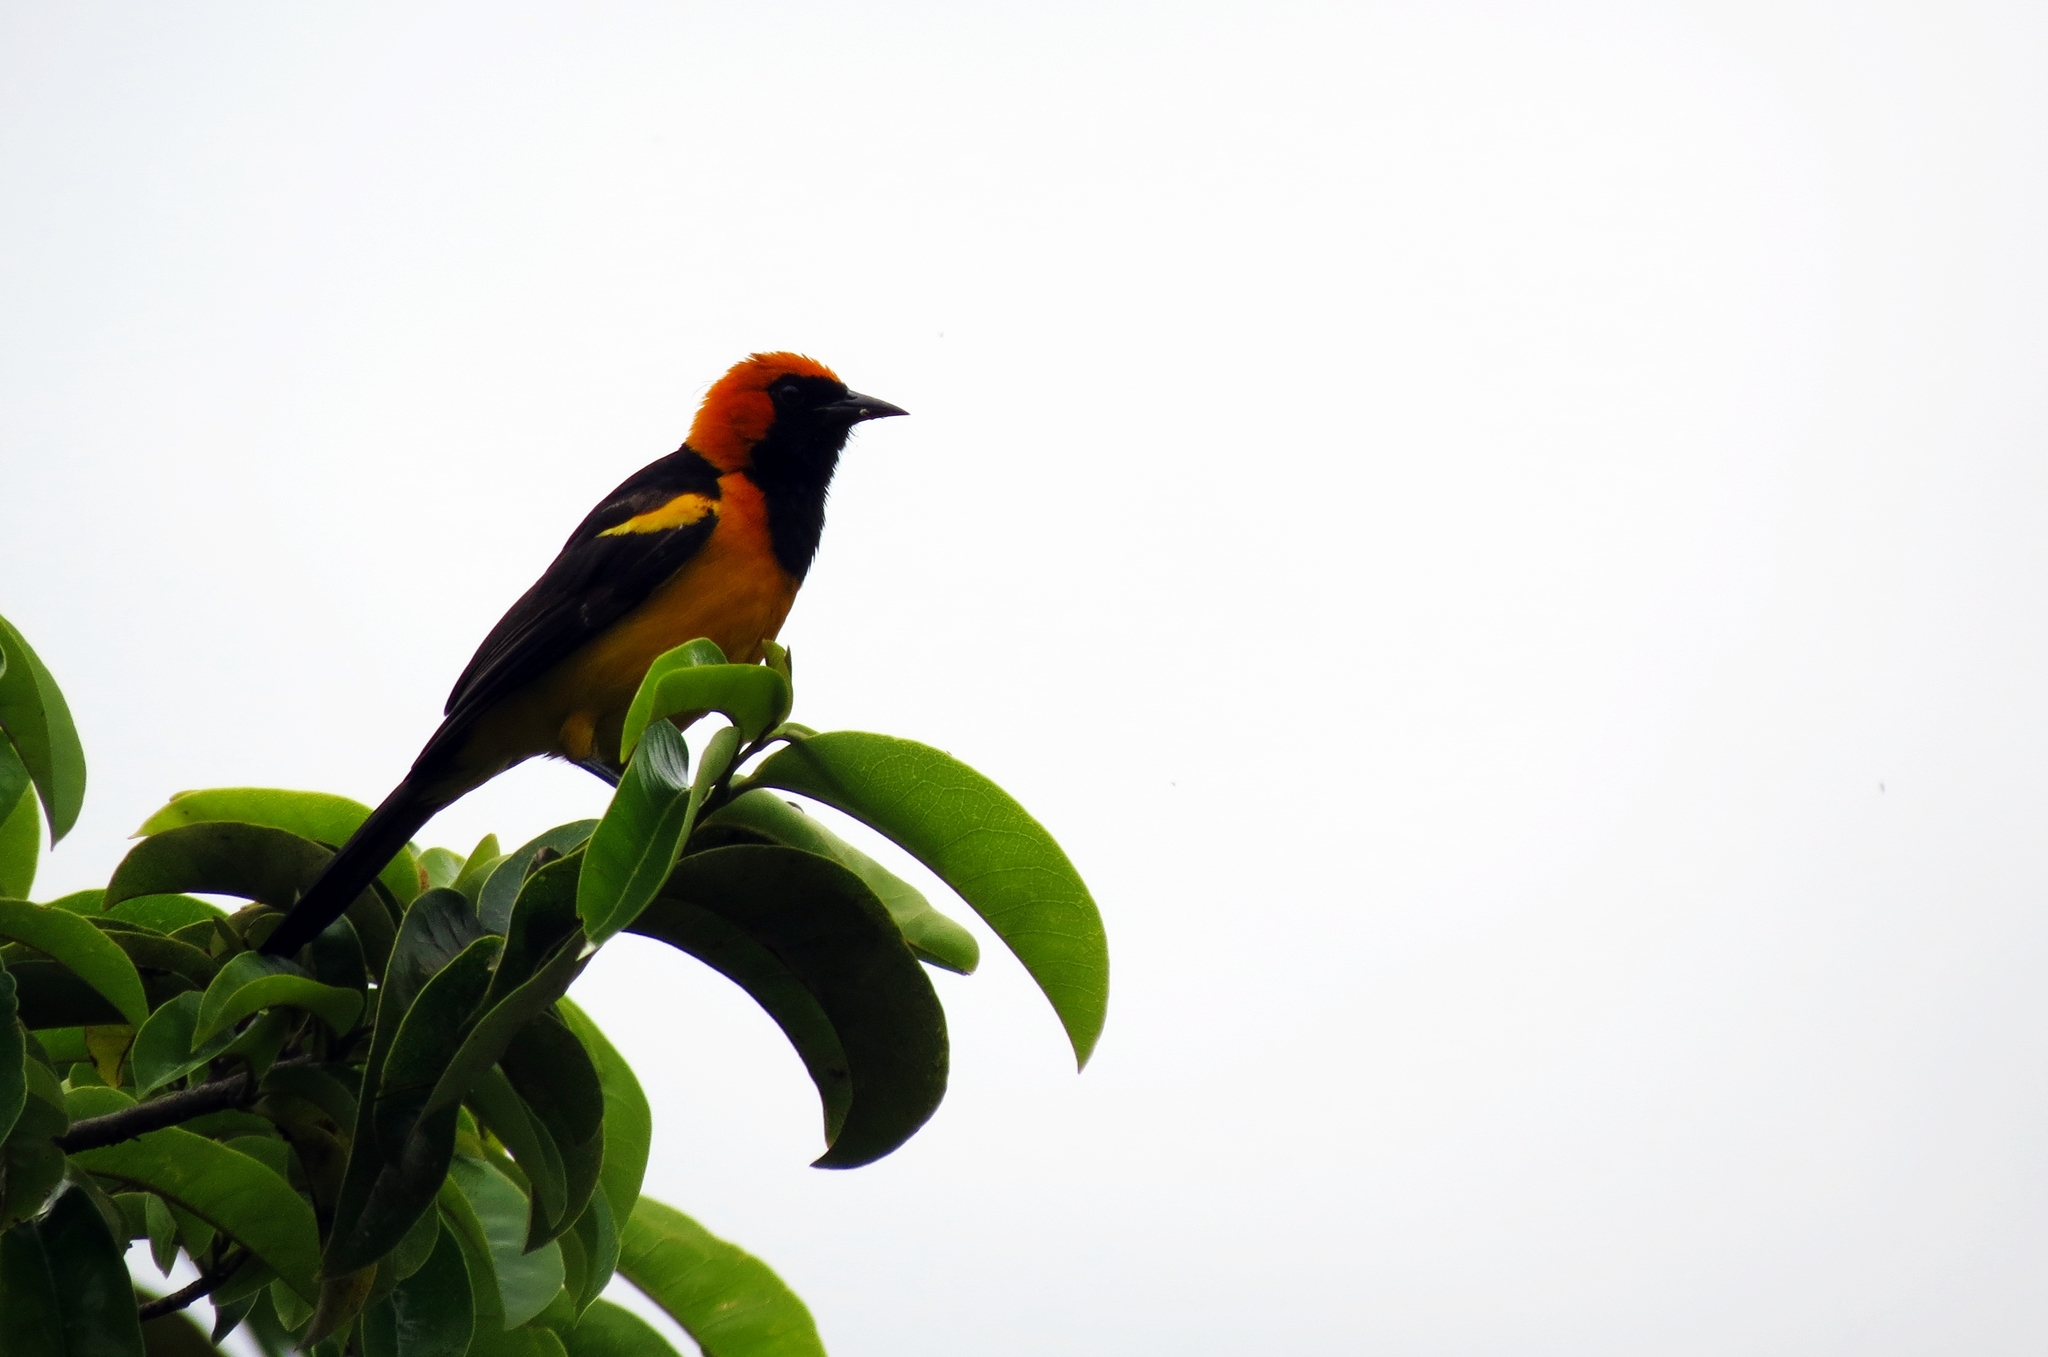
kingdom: Animalia
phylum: Chordata
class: Aves
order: Passeriformes
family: Icteridae
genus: Icterus
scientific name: Icterus auricapillus
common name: Orange-crowned oriole
